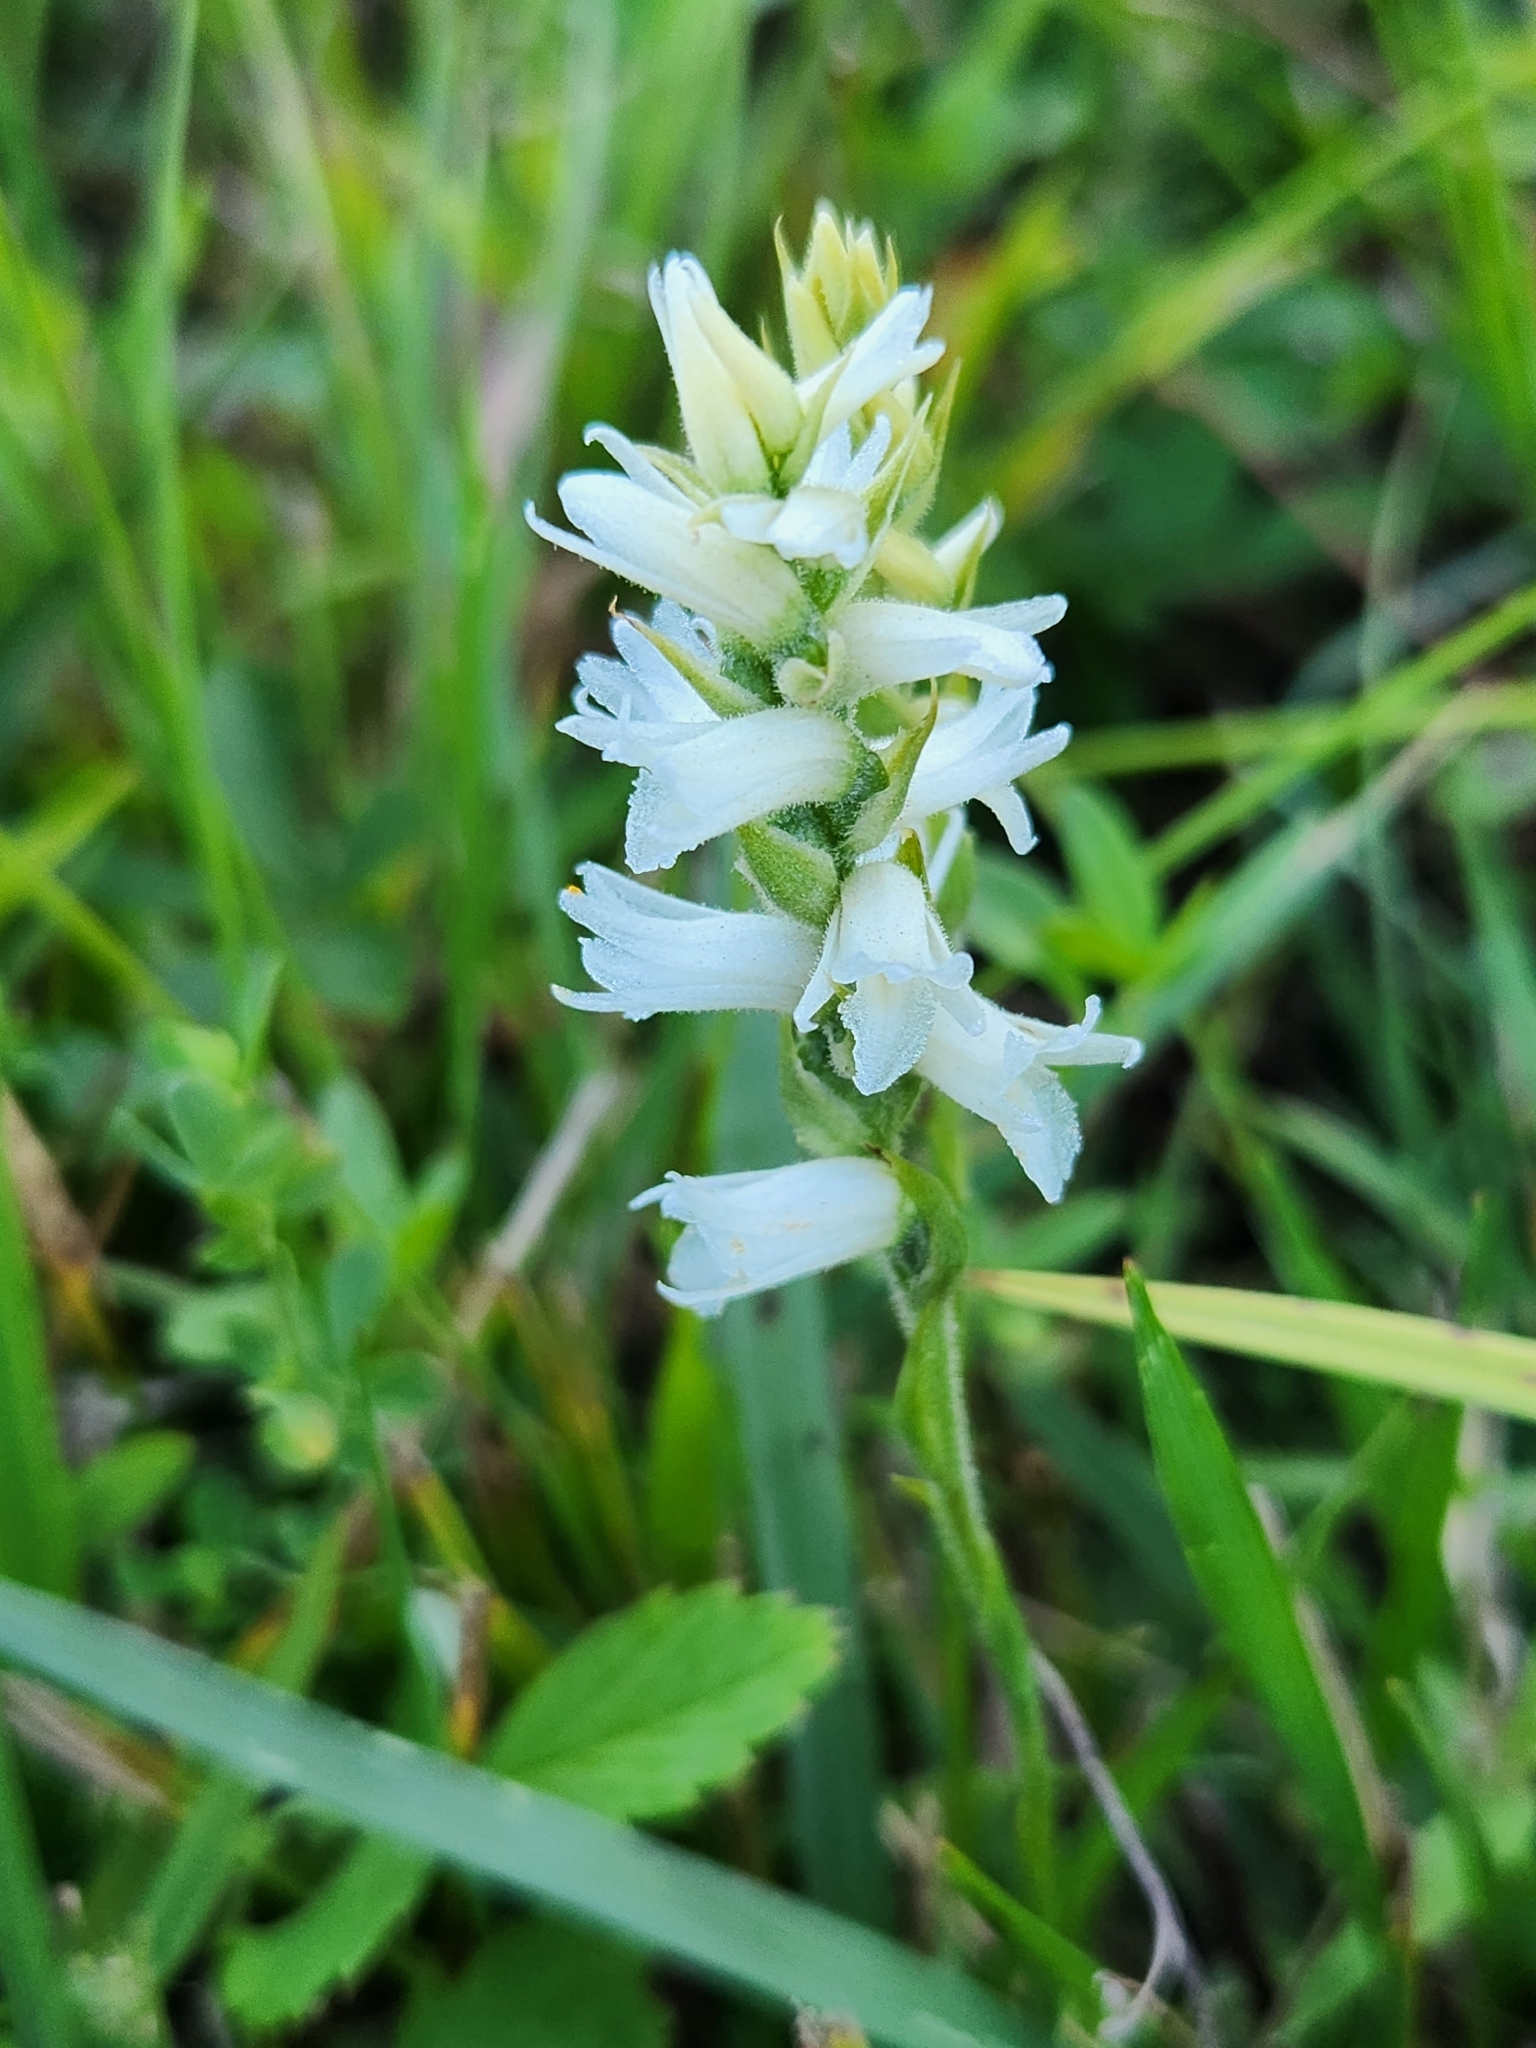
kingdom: Plantae
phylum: Tracheophyta
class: Liliopsida
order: Asparagales
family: Orchidaceae
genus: Spiranthes
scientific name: Spiranthes incurva
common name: Sphinx ladies'-tresses
